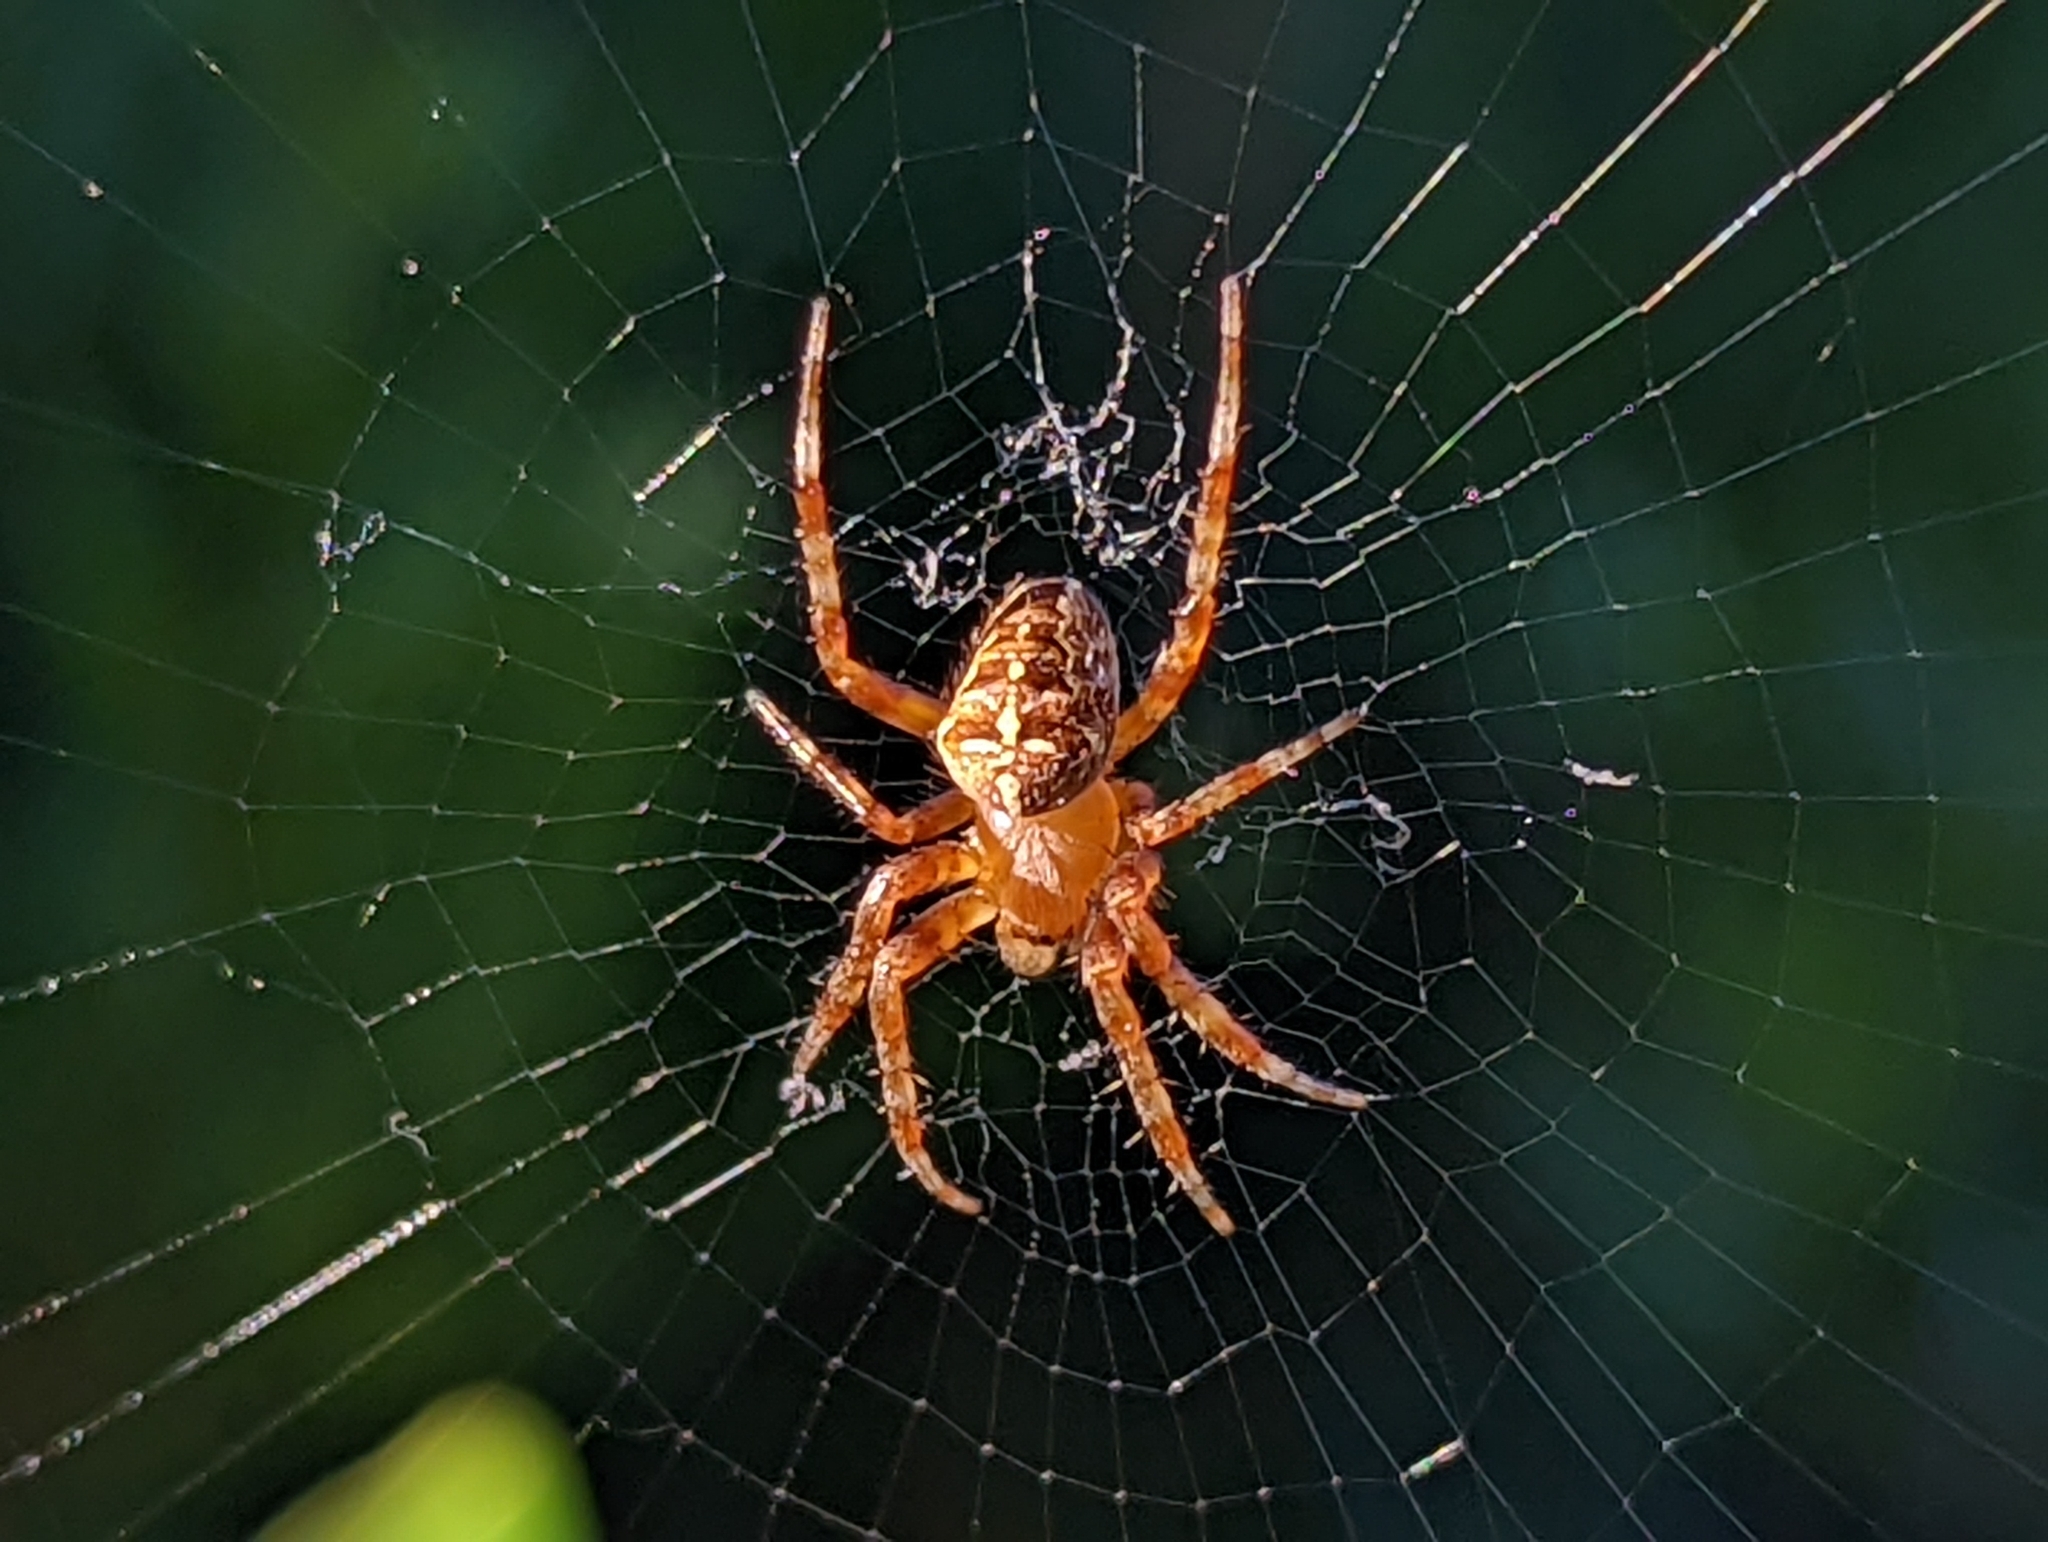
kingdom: Animalia
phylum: Arthropoda
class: Arachnida
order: Araneae
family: Araneidae
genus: Araneus
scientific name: Araneus diadematus
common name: Cross orbweaver
